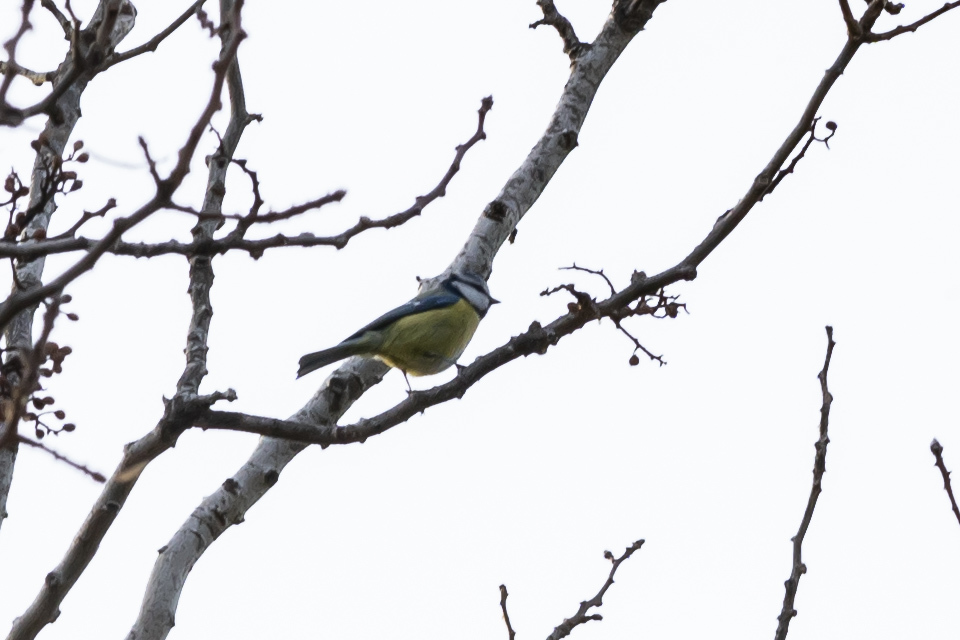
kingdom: Animalia
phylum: Chordata
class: Aves
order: Passeriformes
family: Paridae
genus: Cyanistes
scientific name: Cyanistes caeruleus
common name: Eurasian blue tit
